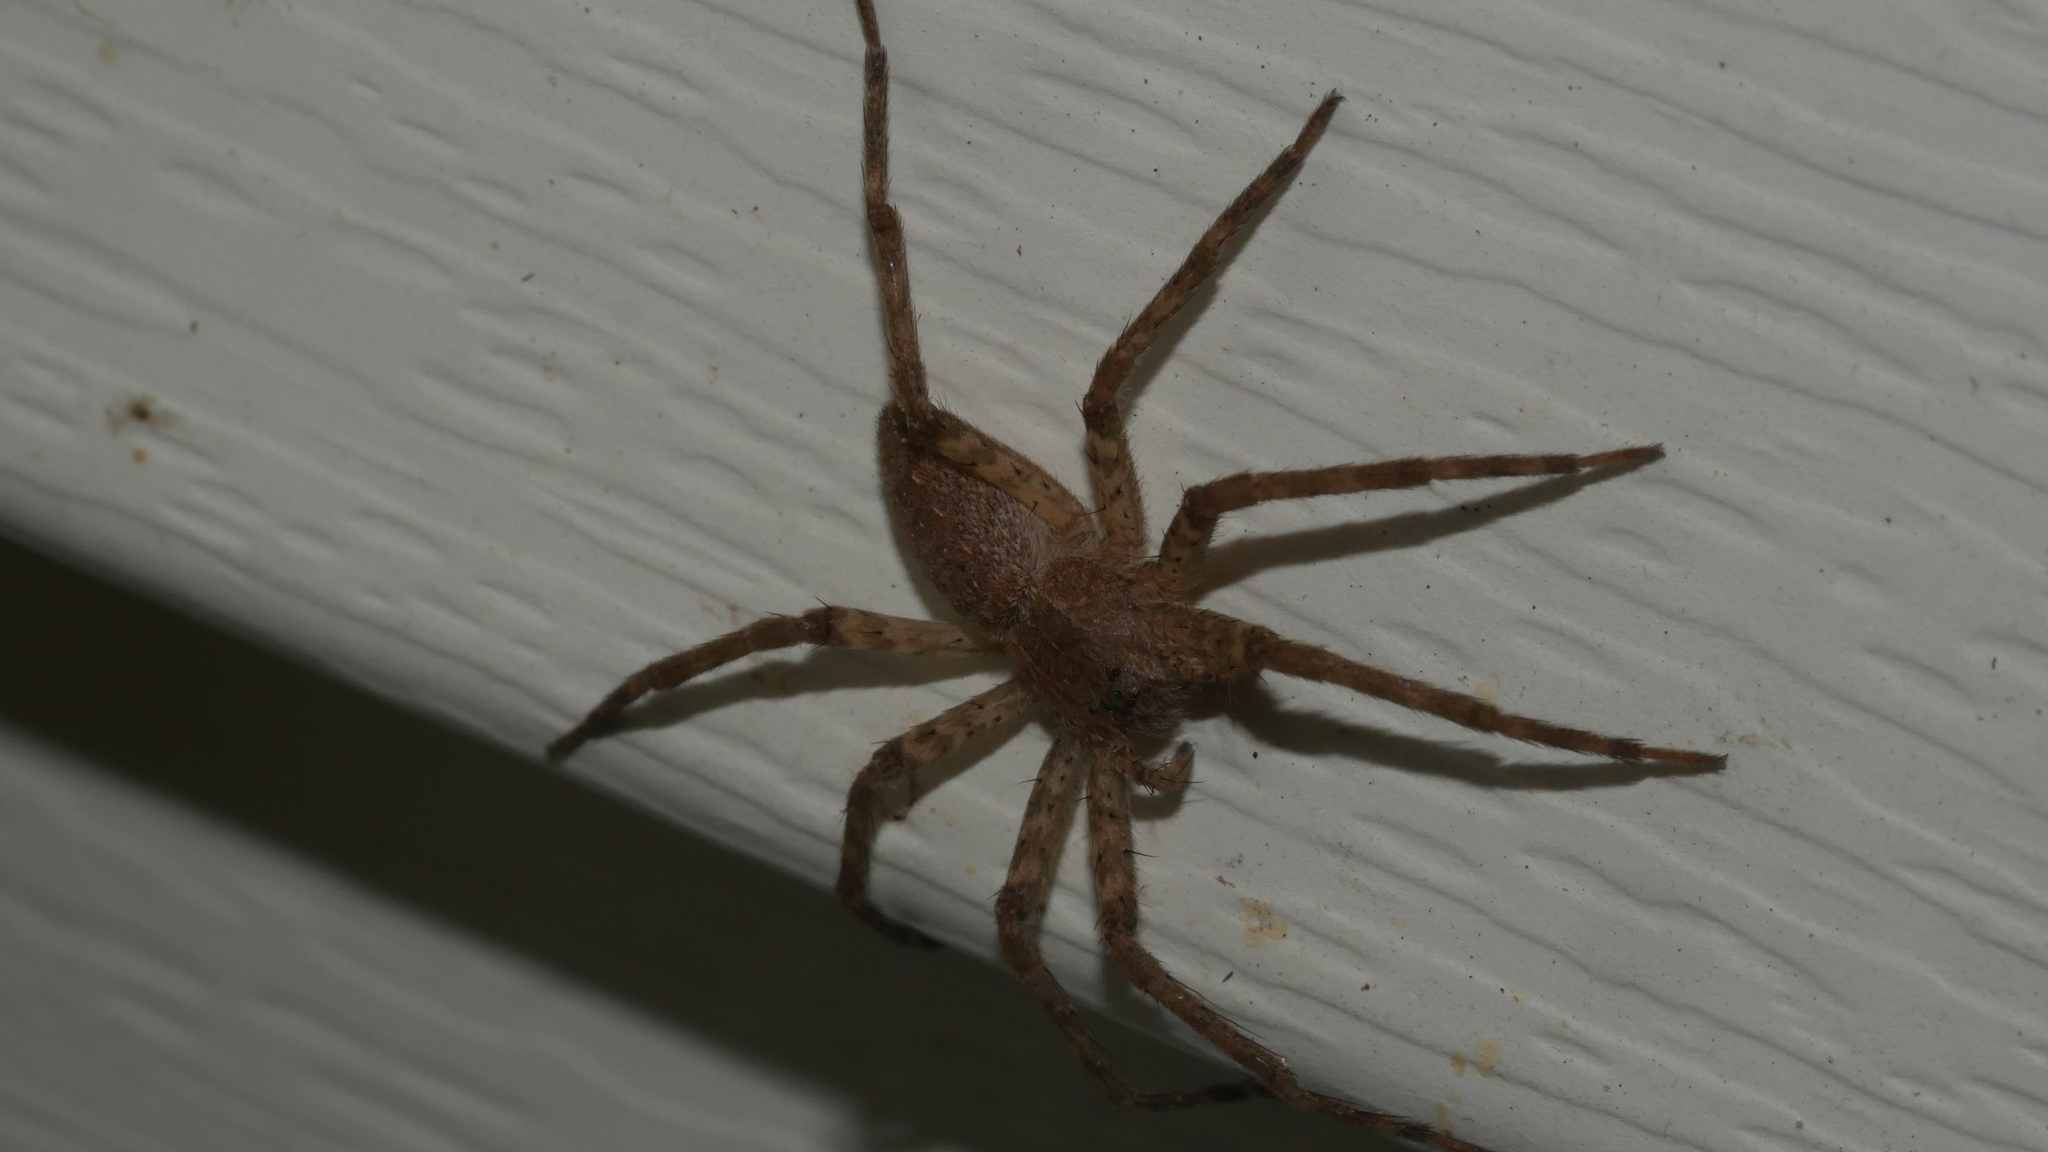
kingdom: Animalia
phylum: Arthropoda
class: Arachnida
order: Araneae
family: Pisauridae
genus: Pisaurina
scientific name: Pisaurina mira
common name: American nursery web spider
